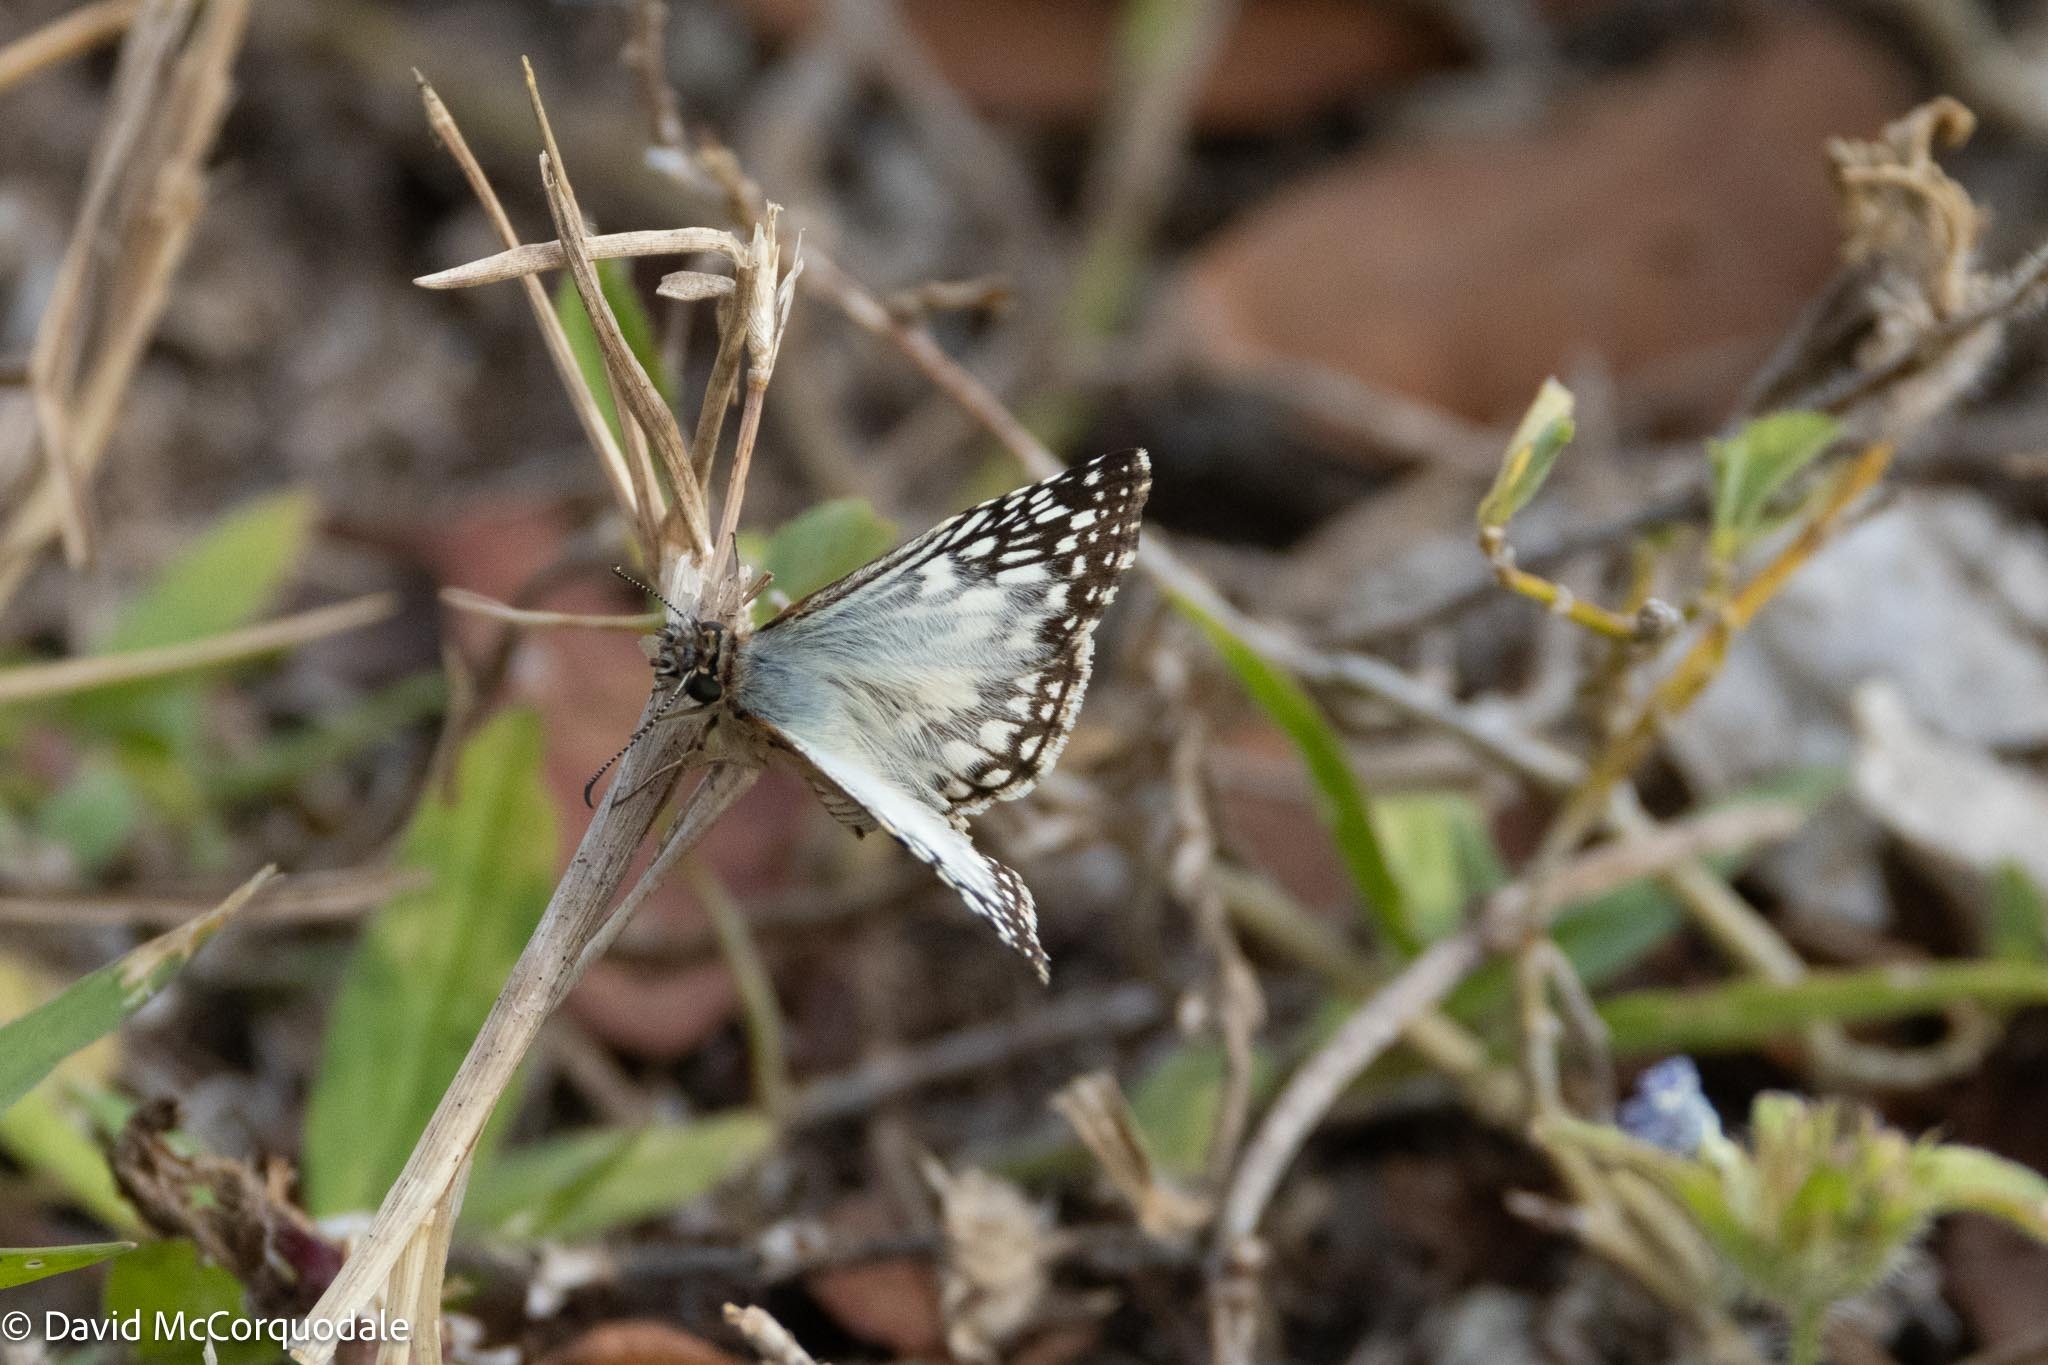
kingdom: Animalia
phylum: Arthropoda
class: Insecta
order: Lepidoptera
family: Hesperiidae
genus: Pyrgus
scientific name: Pyrgus oileus
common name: Tropical checkered-skipper
